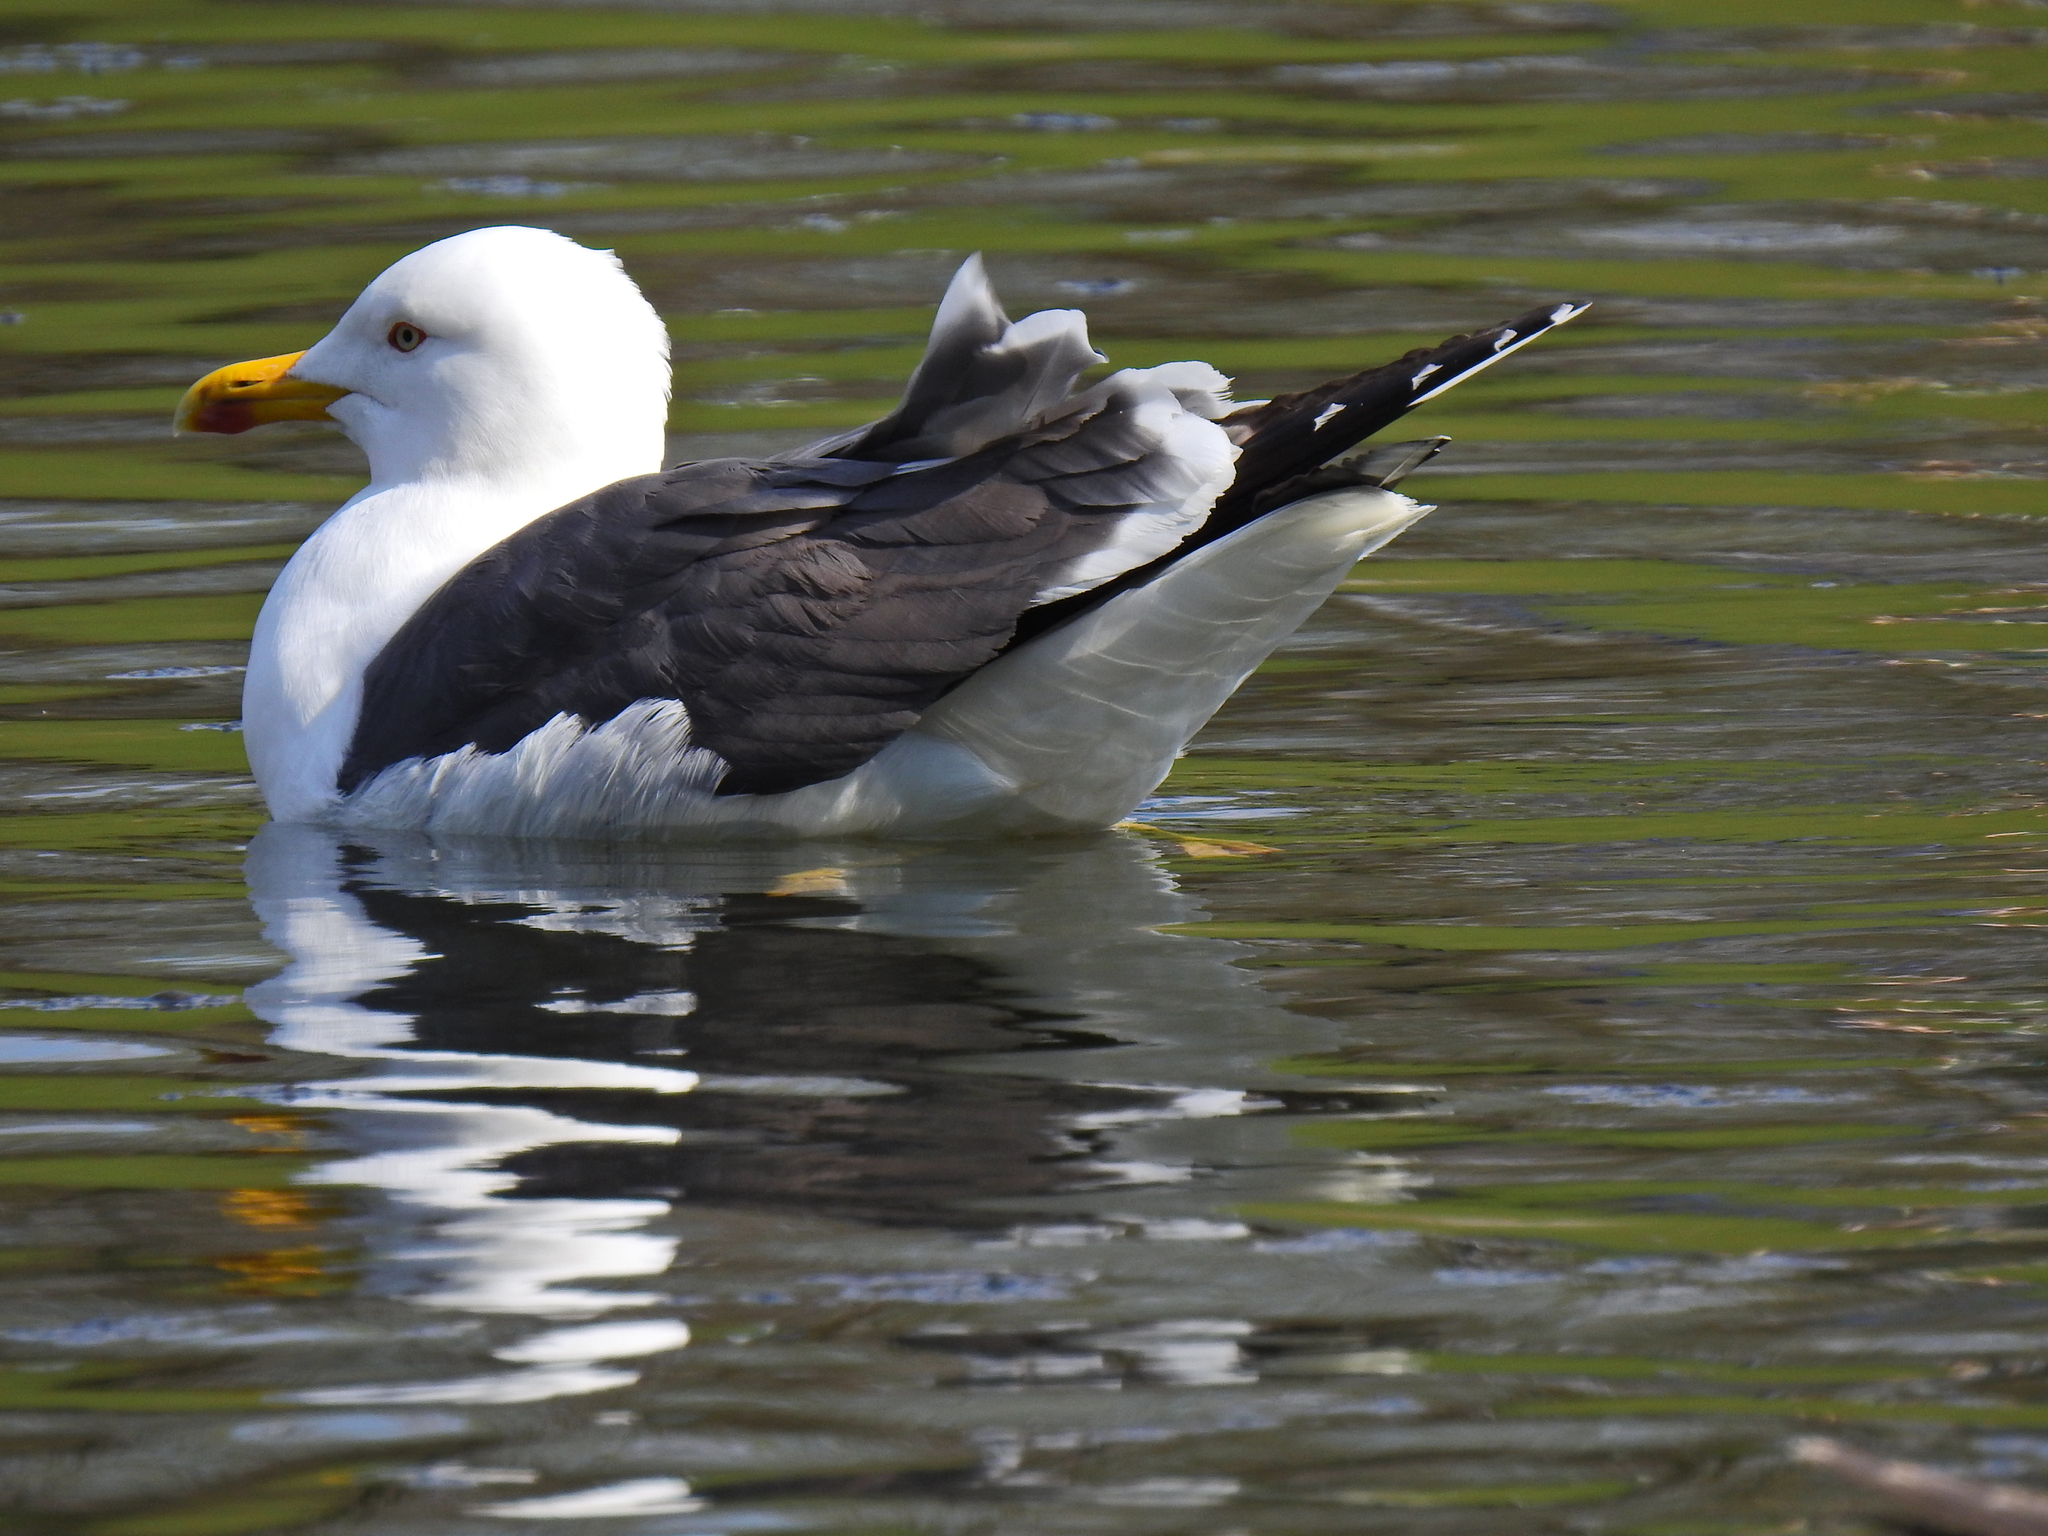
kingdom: Animalia
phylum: Chordata
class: Aves
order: Charadriiformes
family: Laridae
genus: Larus
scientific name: Larus fuscus
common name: Lesser black-backed gull
